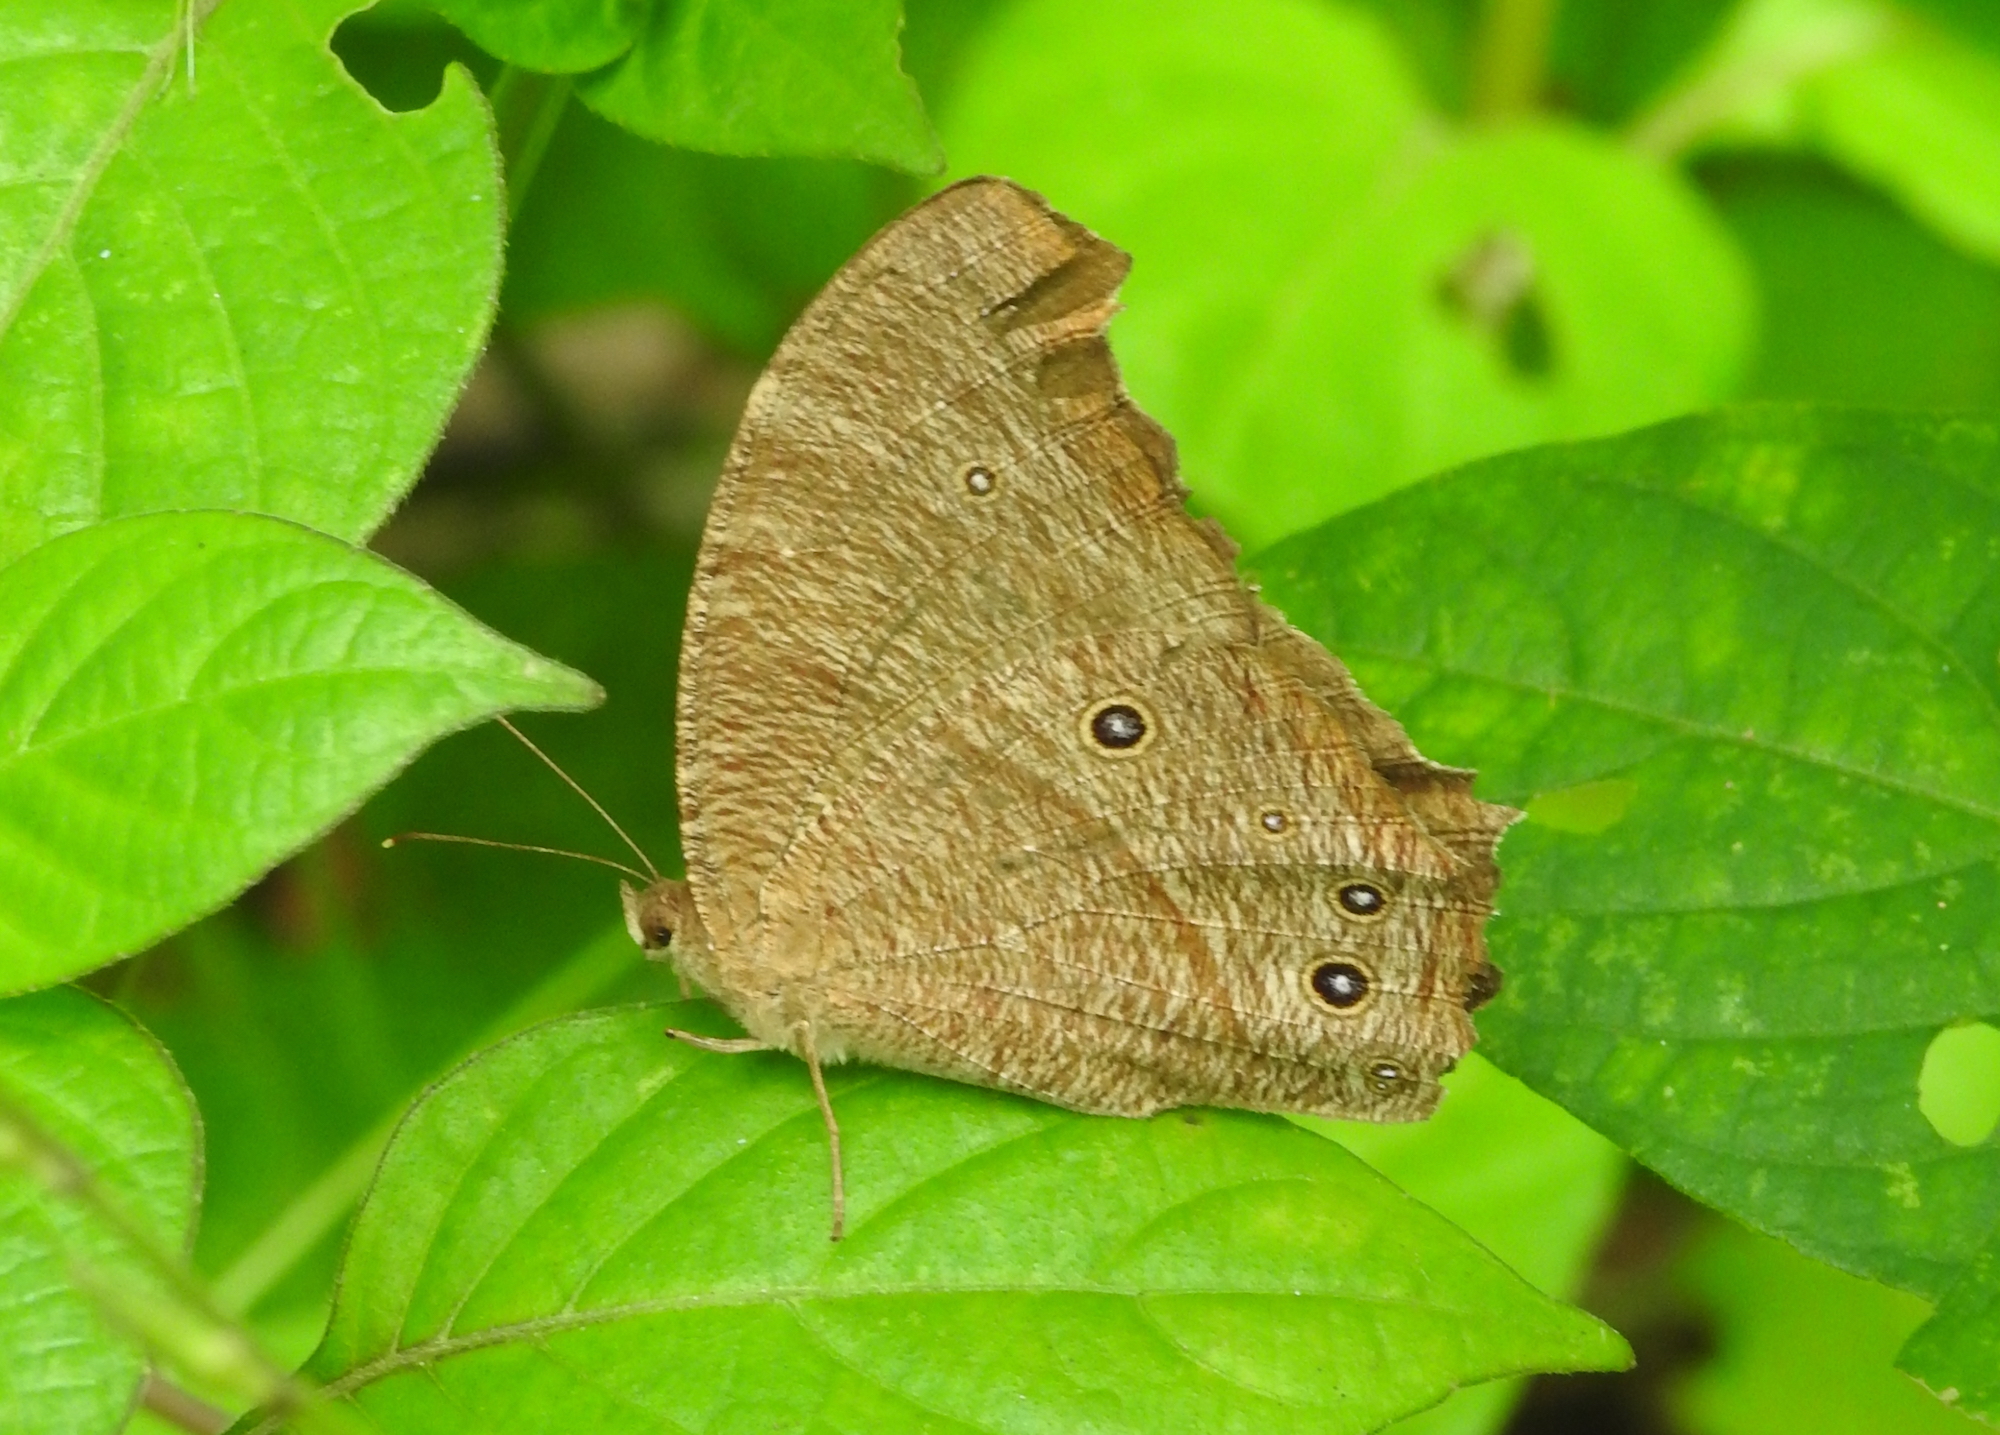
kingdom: Animalia
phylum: Arthropoda
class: Insecta
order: Lepidoptera
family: Nymphalidae
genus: Melanitis
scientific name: Melanitis leda
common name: Twilight brown
